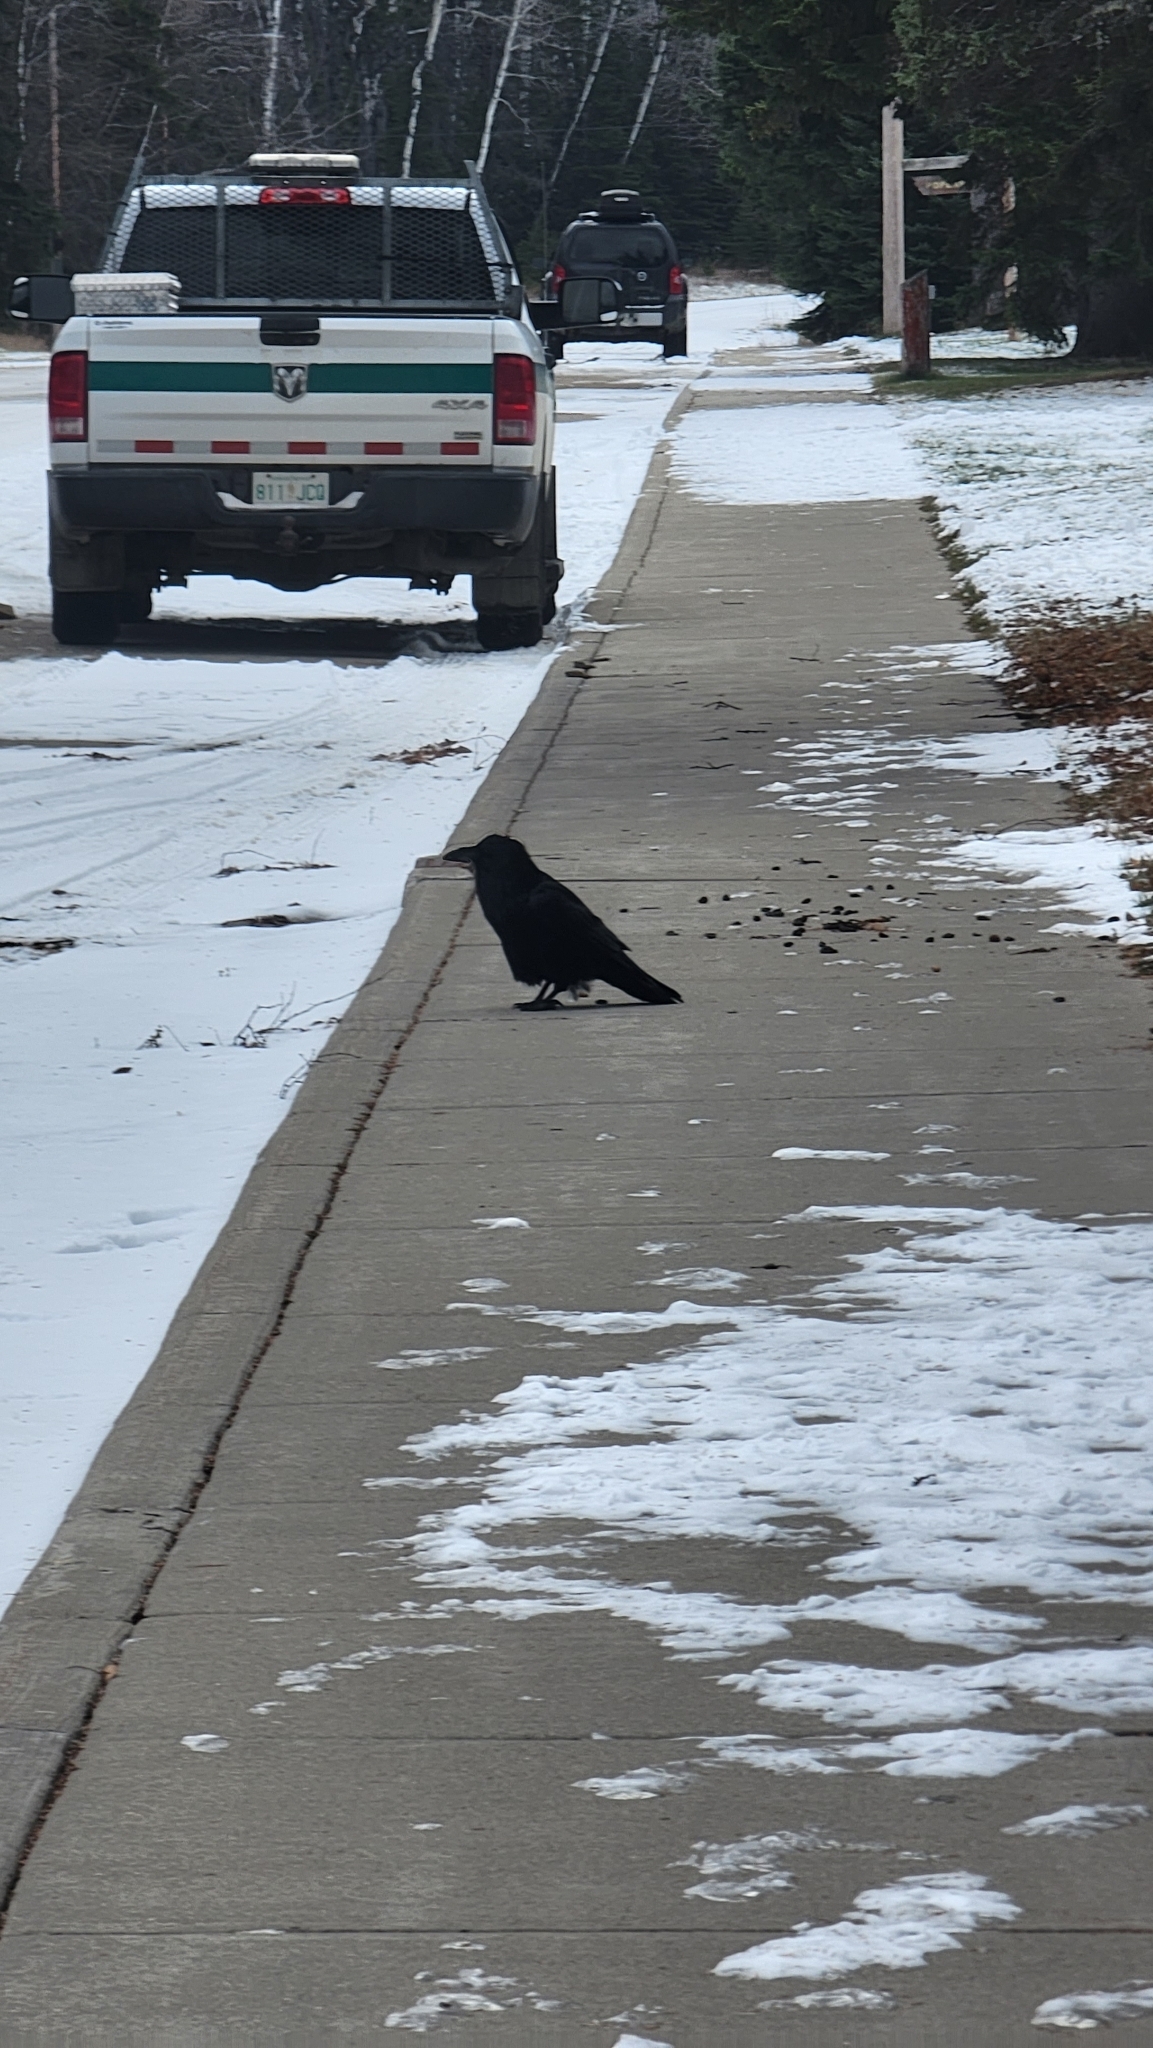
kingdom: Animalia
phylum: Chordata
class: Aves
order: Passeriformes
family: Corvidae
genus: Corvus
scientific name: Corvus corax
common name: Common raven
